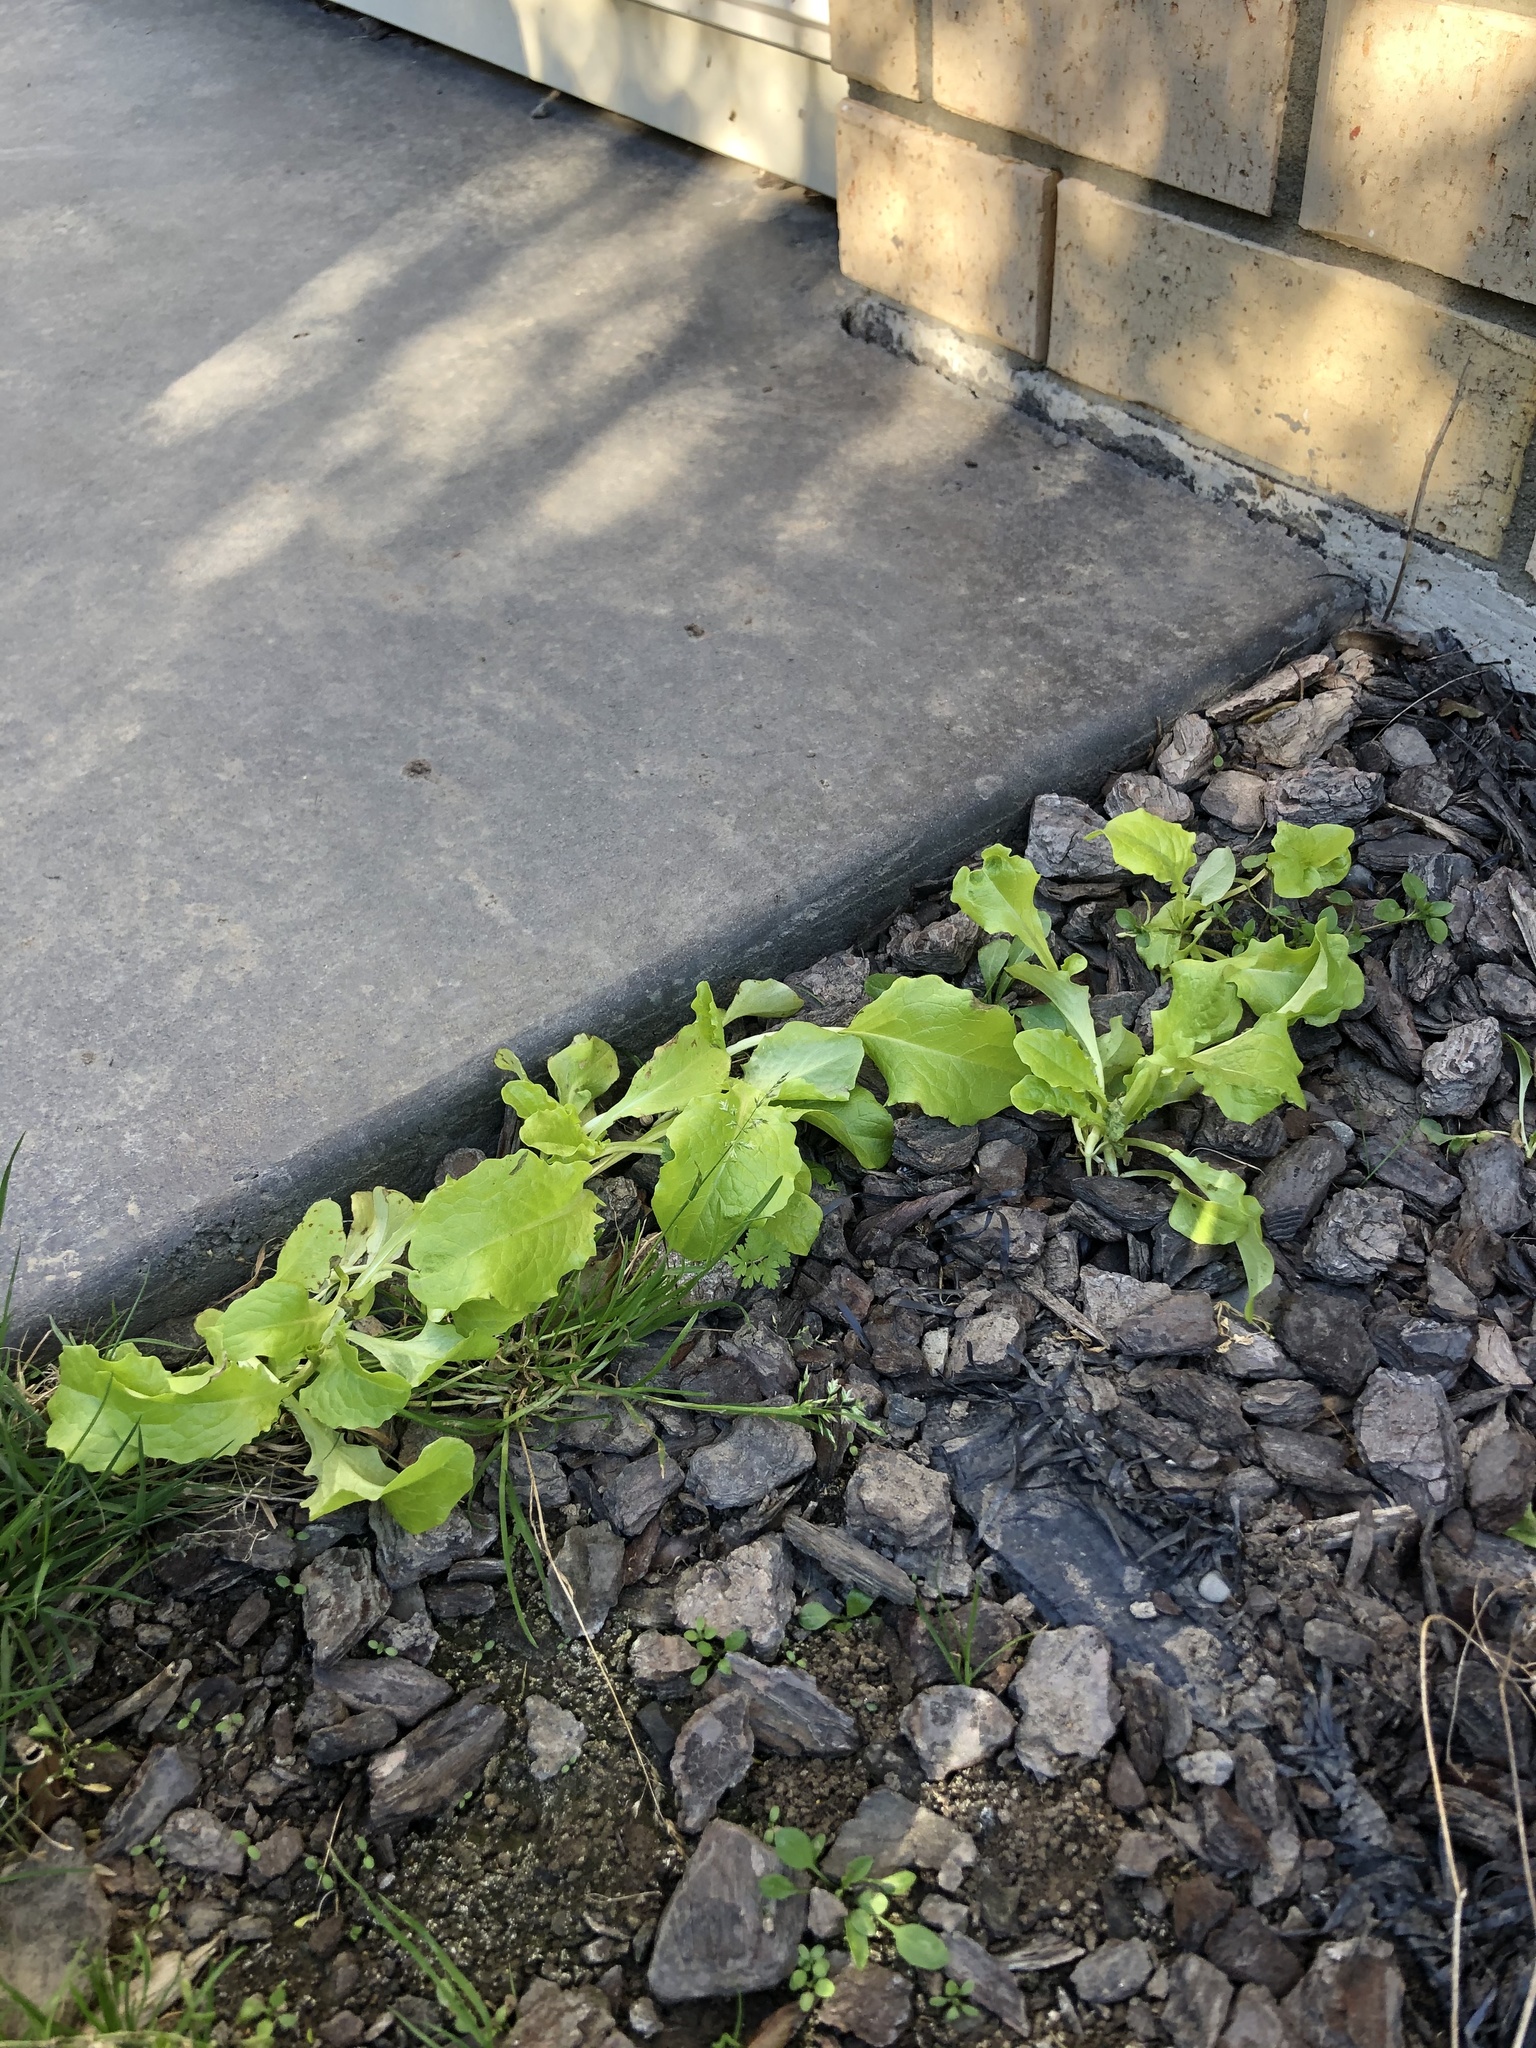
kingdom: Plantae
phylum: Tracheophyta
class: Magnoliopsida
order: Asterales
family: Asteraceae
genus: Lactuca
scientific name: Lactuca sativa
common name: Garden lettuce
